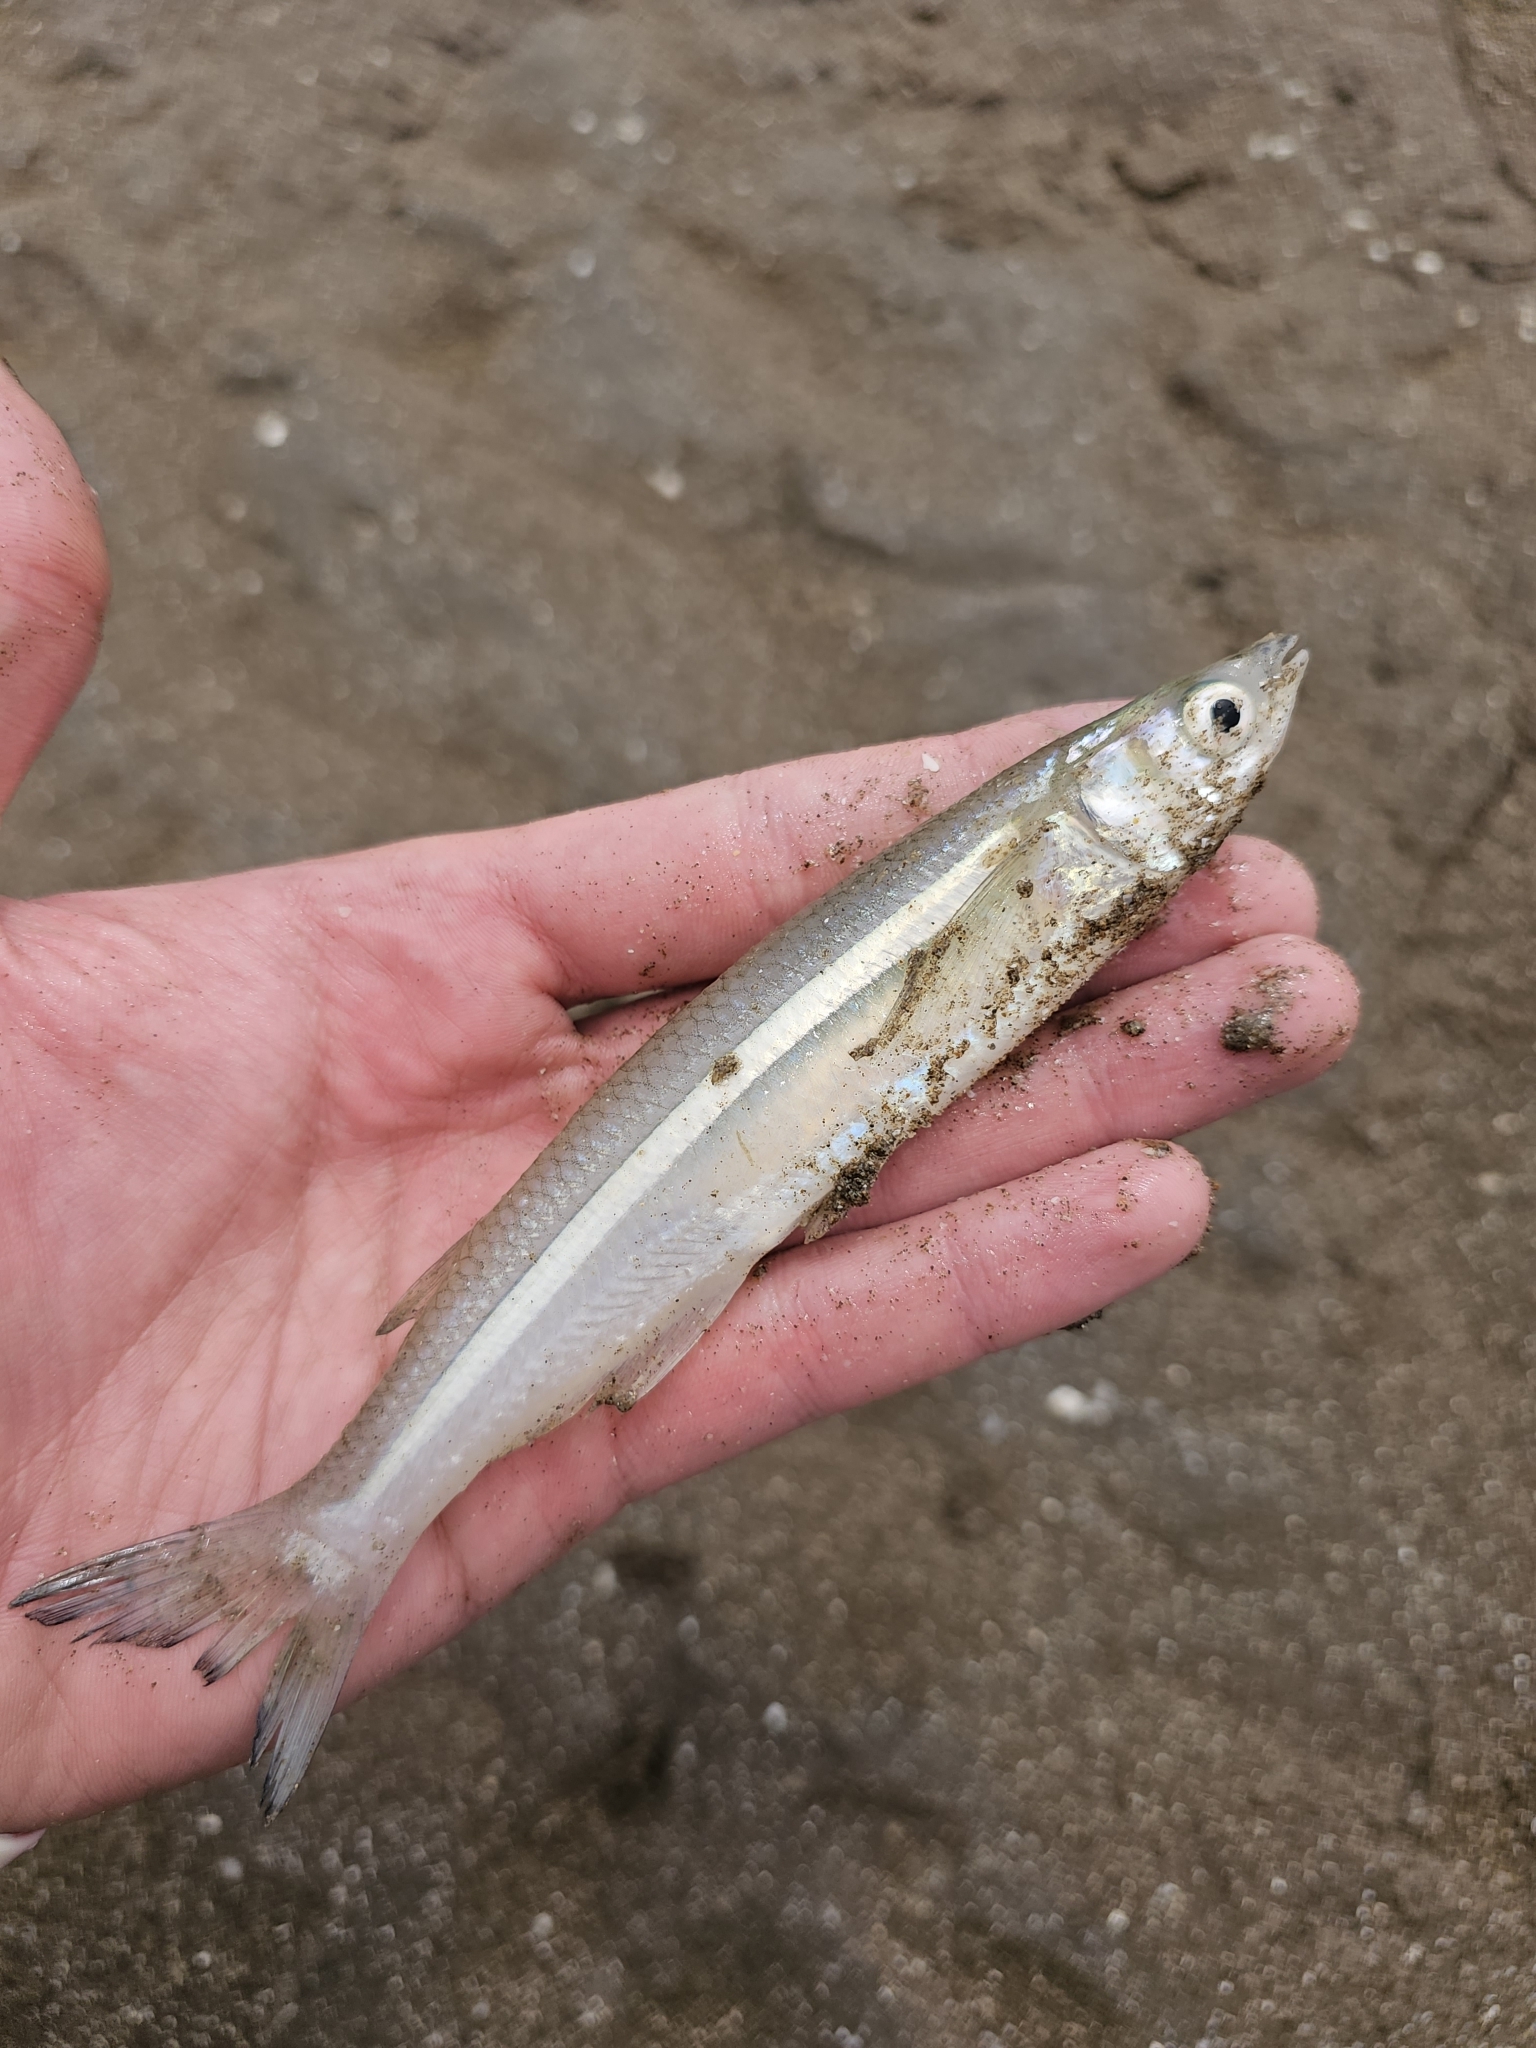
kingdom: Animalia
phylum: Chordata
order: Atheriniformes
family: Atherinopsidae
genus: Odontesthes
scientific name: Odontesthes argentinensis
